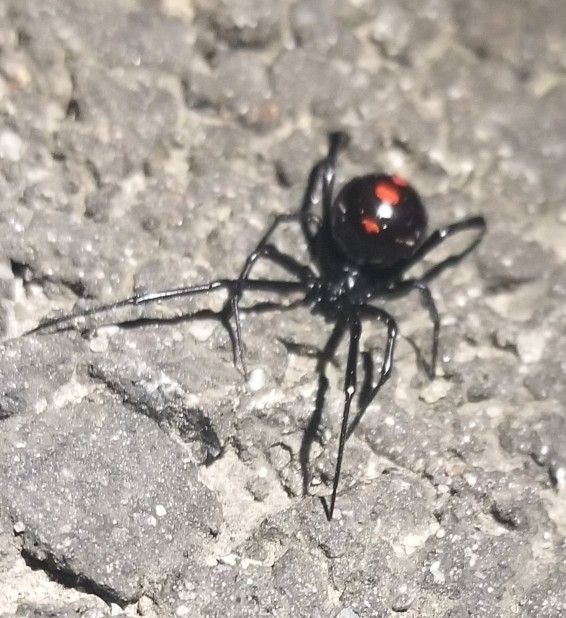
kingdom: Animalia
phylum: Arthropoda
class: Arachnida
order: Araneae
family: Theridiidae
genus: Latrodectus
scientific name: Latrodectus variolus
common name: Northern black widow
